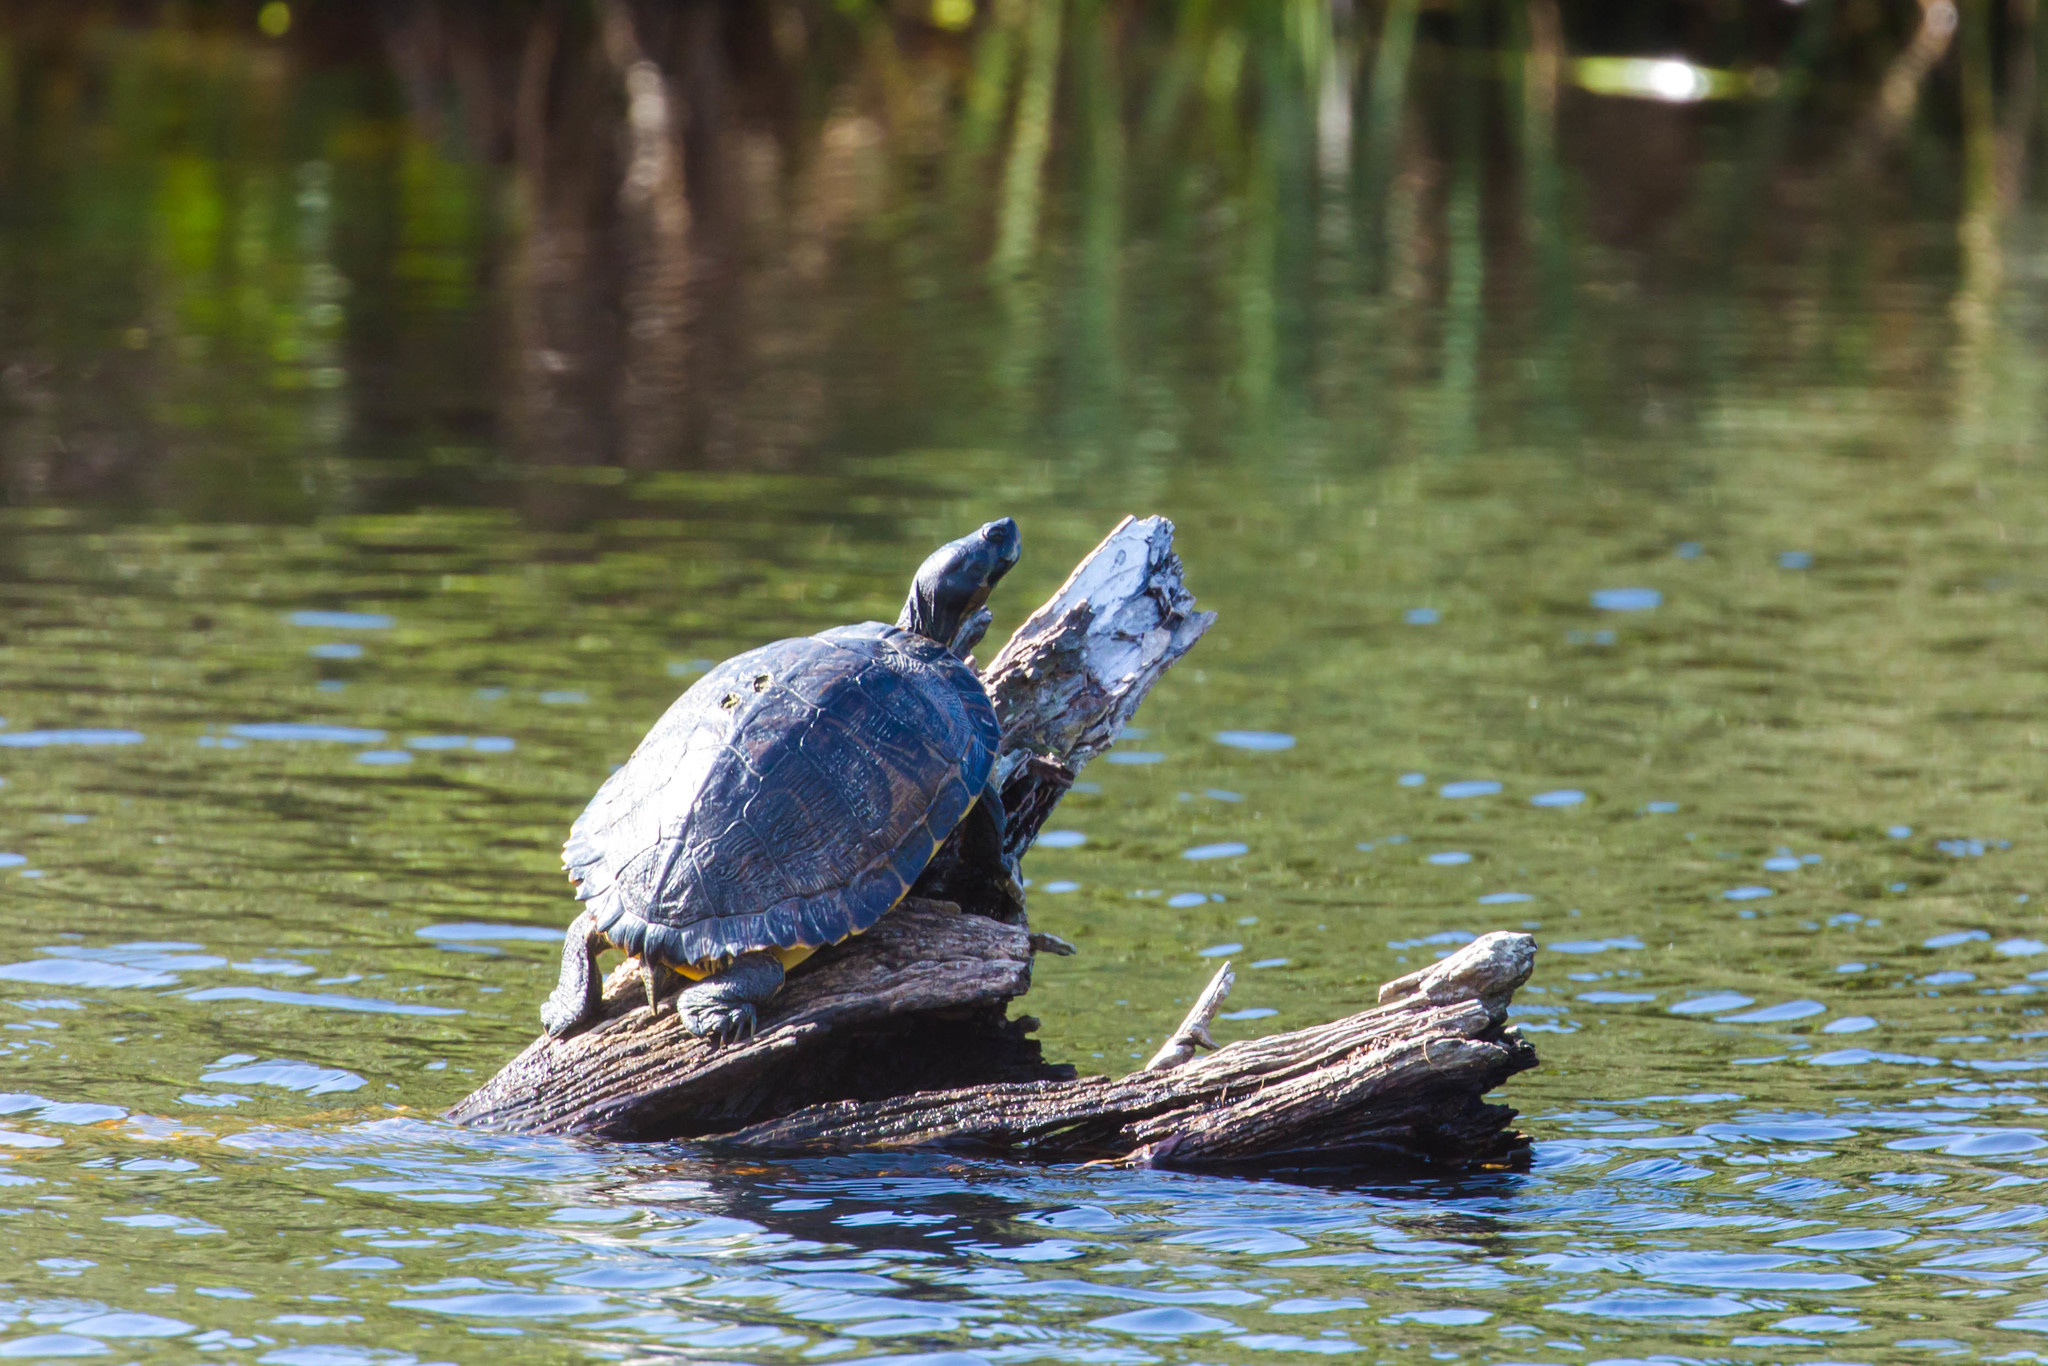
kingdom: Animalia
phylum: Chordata
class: Testudines
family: Emydidae
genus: Trachemys
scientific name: Trachemys scripta
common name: Slider
